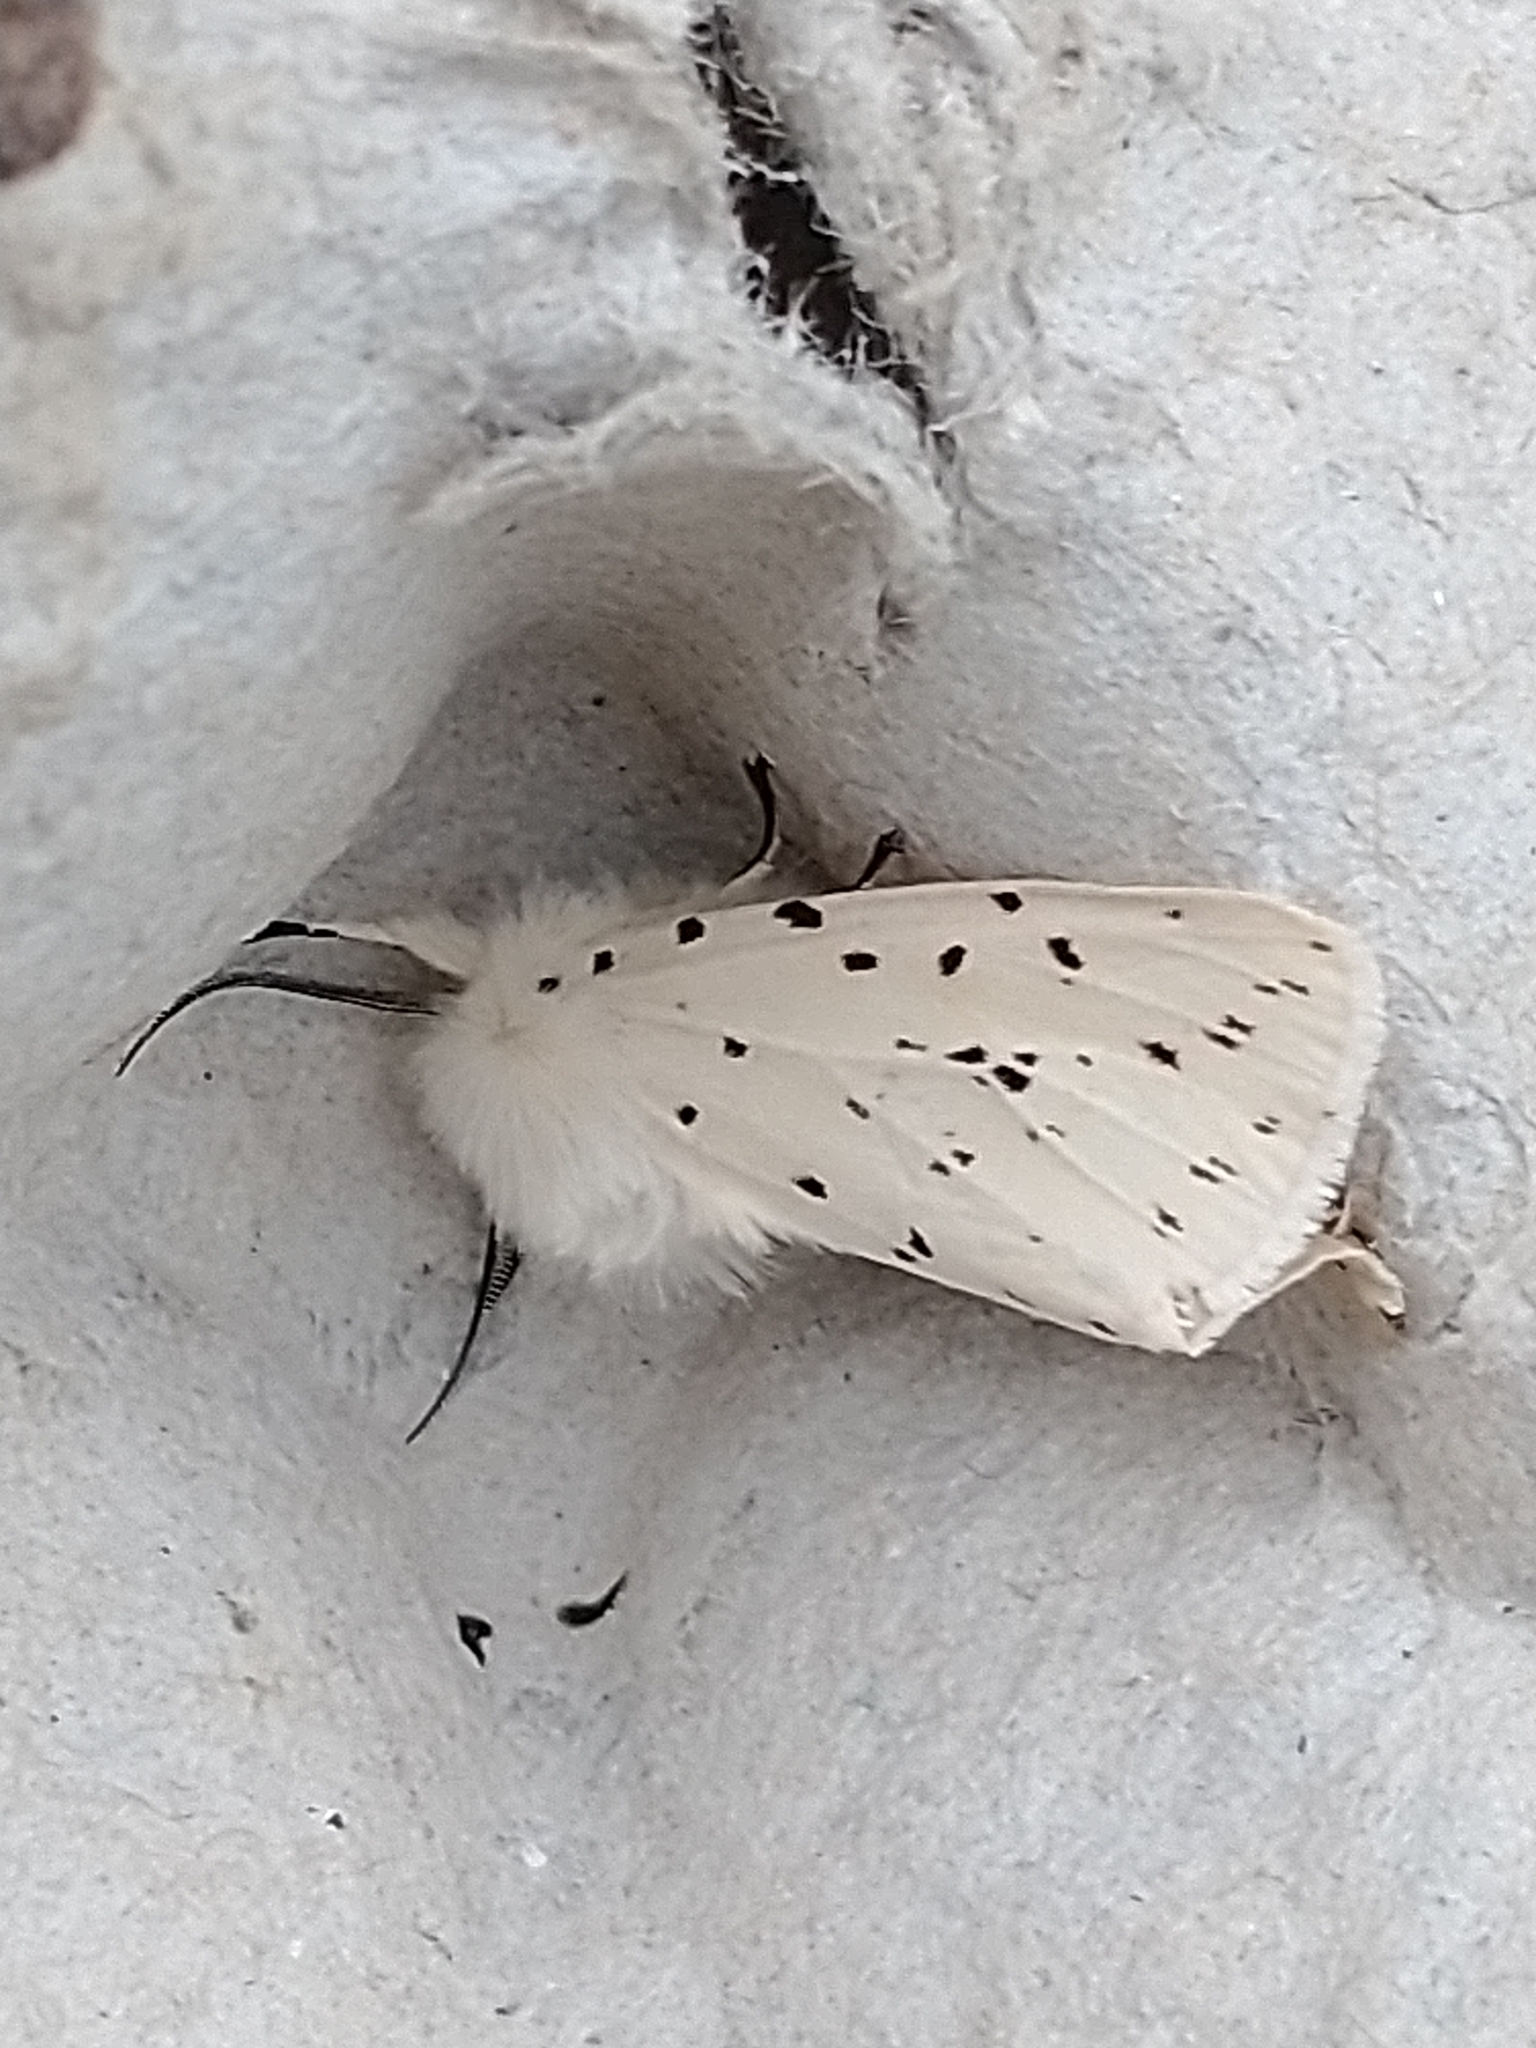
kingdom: Animalia
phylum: Arthropoda
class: Insecta
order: Lepidoptera
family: Erebidae
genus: Spilosoma
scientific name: Spilosoma lubricipeda
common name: White ermine
